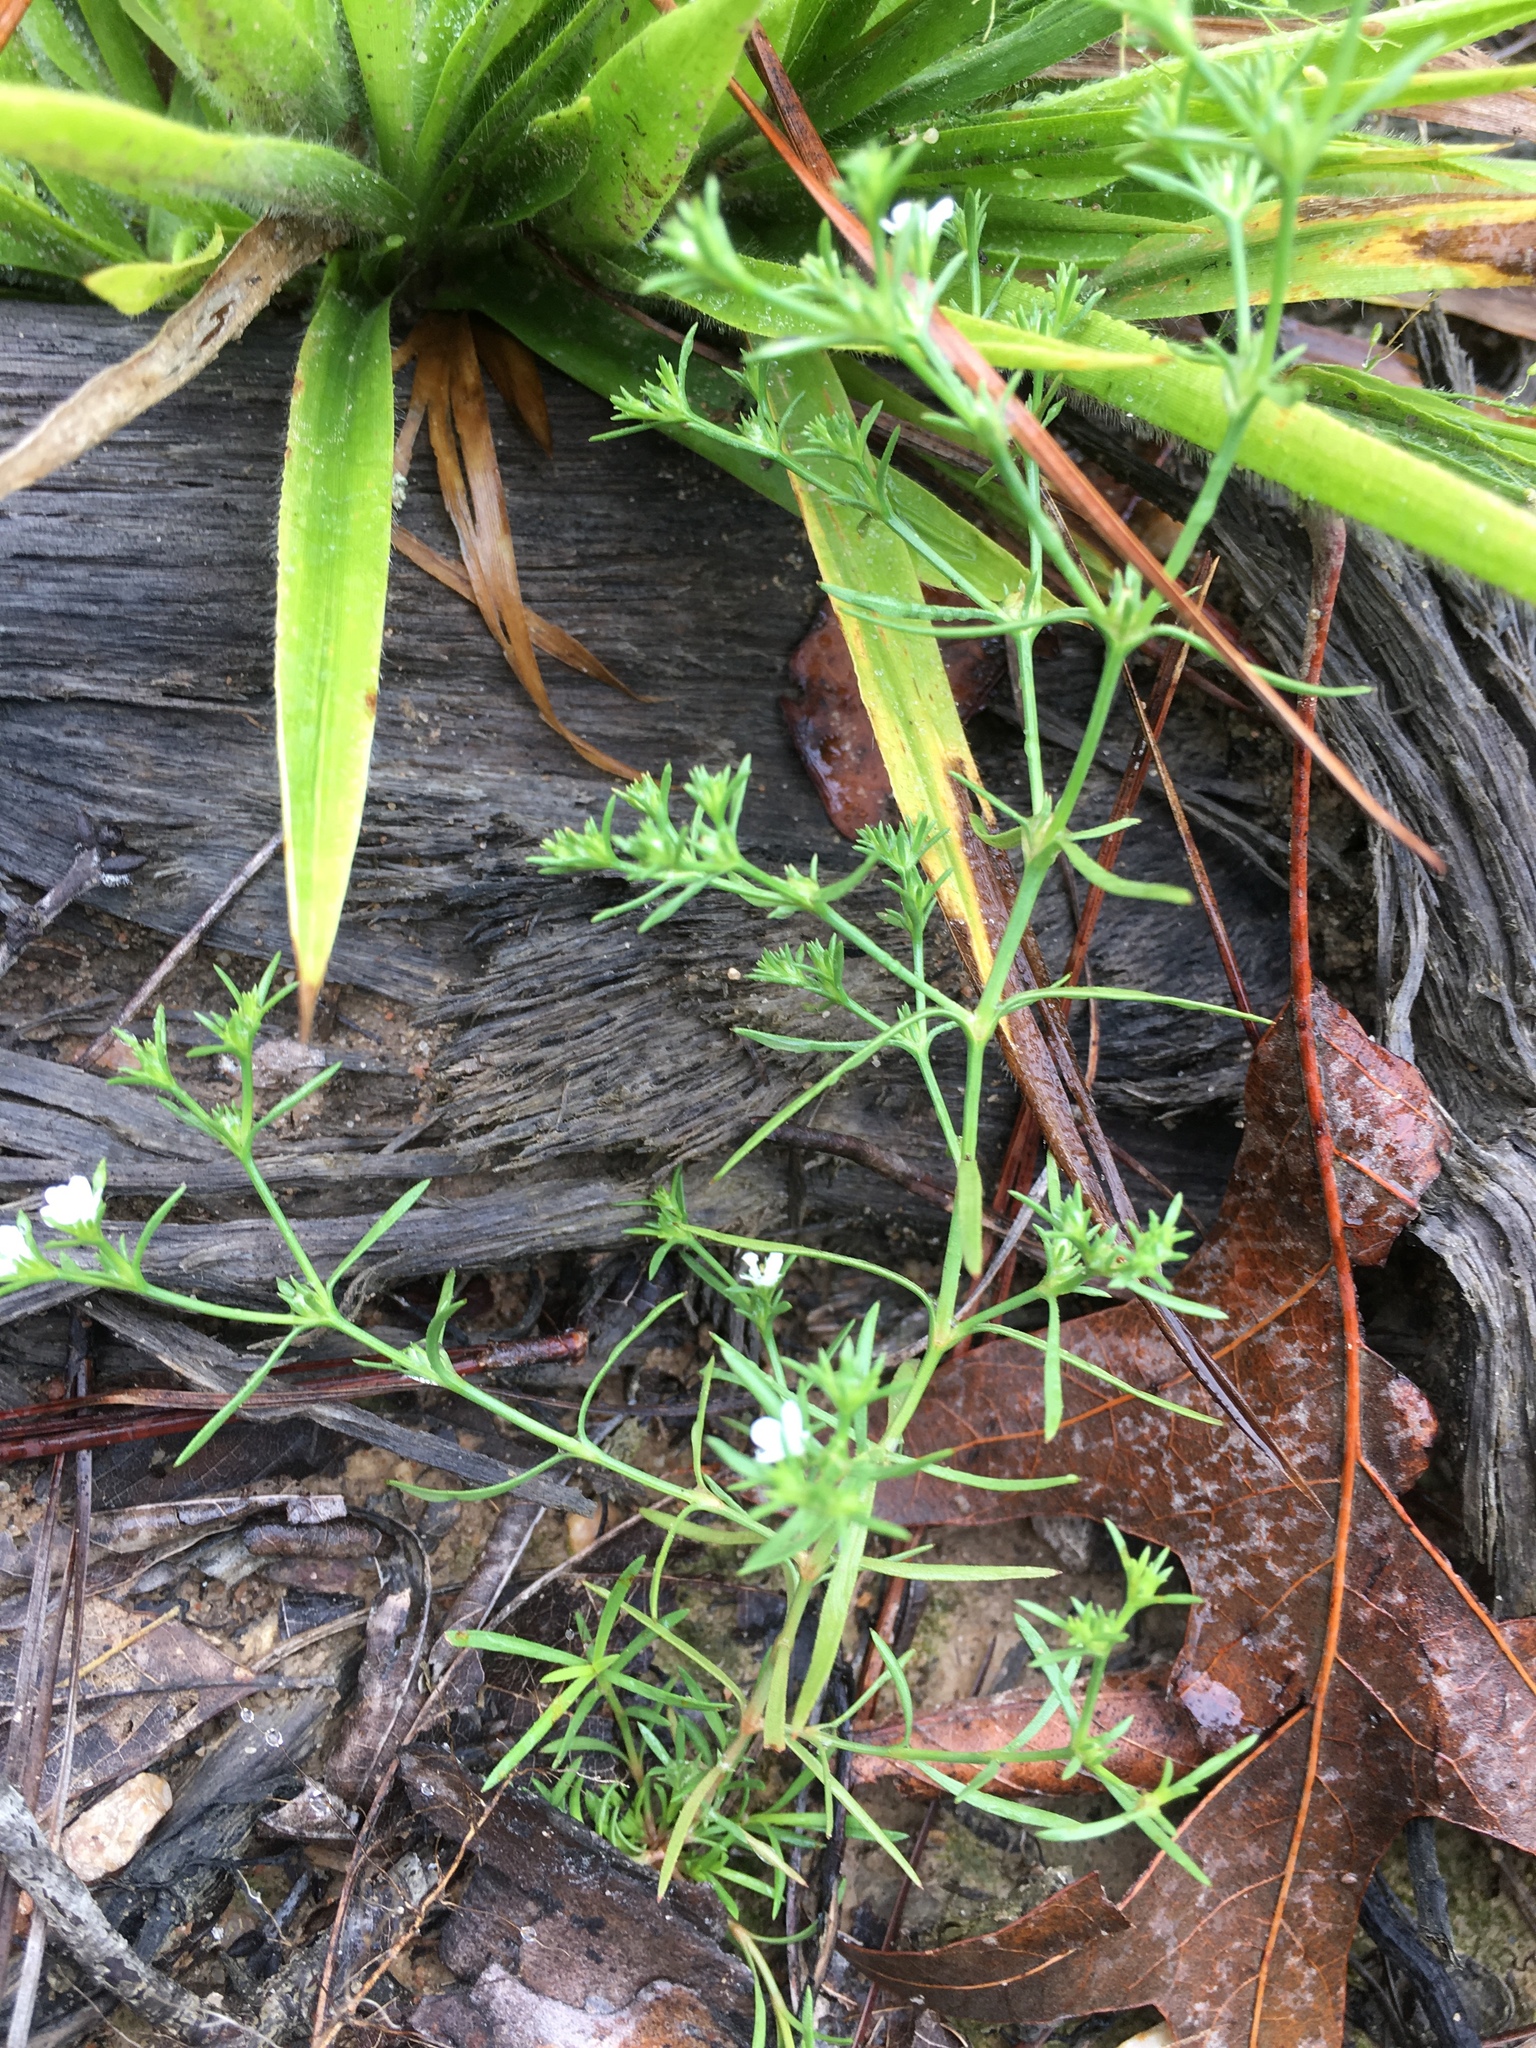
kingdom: Plantae
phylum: Tracheophyta
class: Magnoliopsida
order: Lamiales
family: Tetrachondraceae
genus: Polypremum
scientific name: Polypremum procumbens
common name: Juniper-leaf
